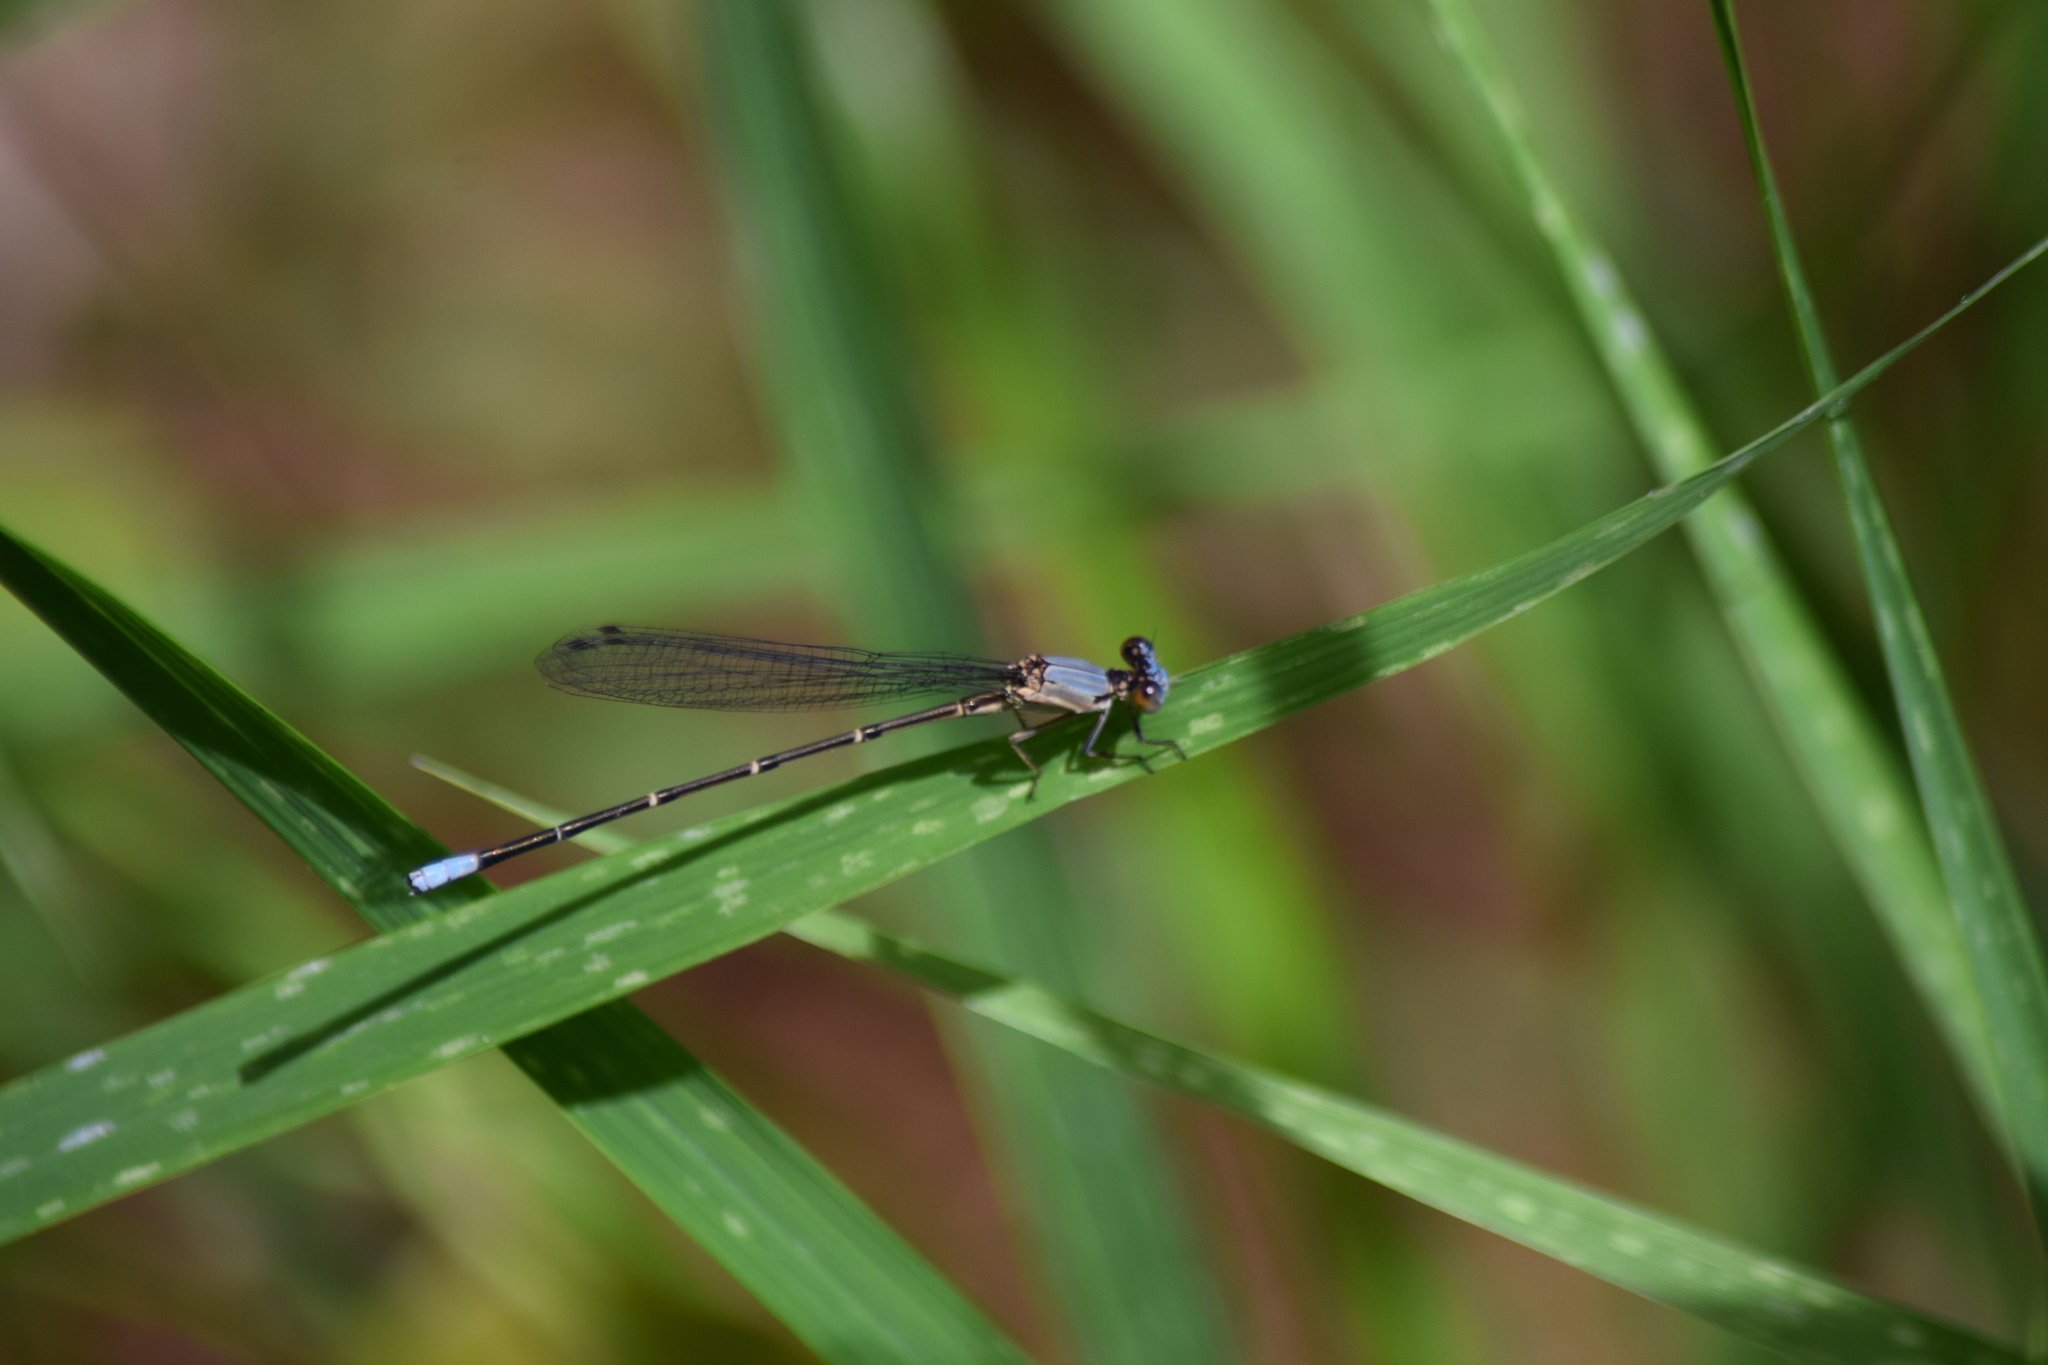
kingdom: Animalia
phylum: Arthropoda
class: Insecta
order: Odonata
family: Coenagrionidae
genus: Argia
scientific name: Argia apicalis
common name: Blue-fronted dancer
